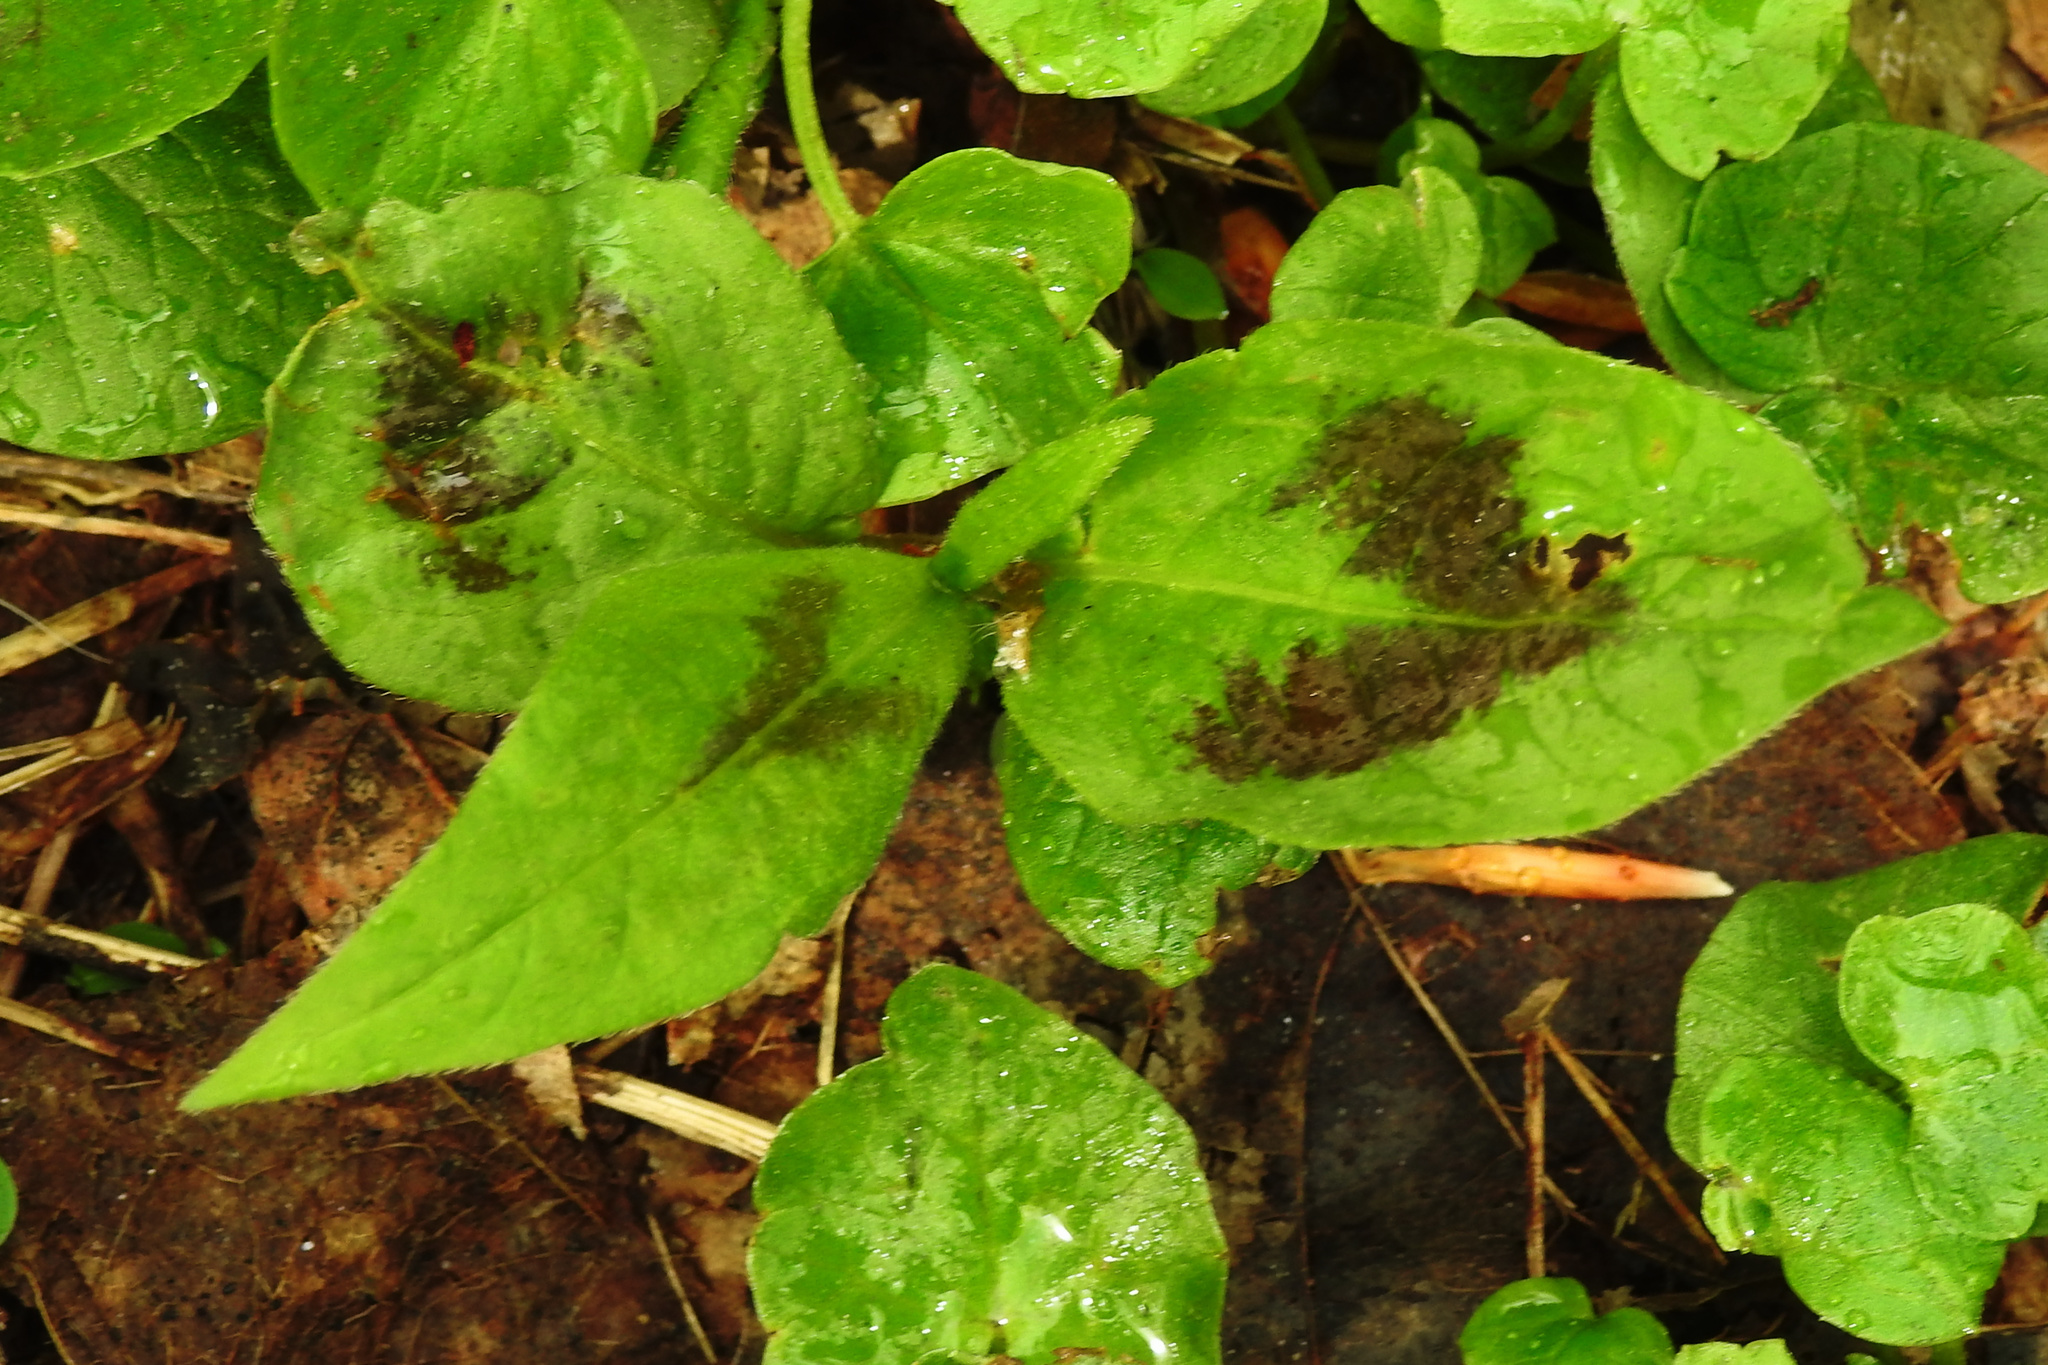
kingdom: Plantae
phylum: Tracheophyta
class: Magnoliopsida
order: Caryophyllales
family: Polygonaceae
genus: Persicaria
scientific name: Persicaria virginiana
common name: Jumpseed
